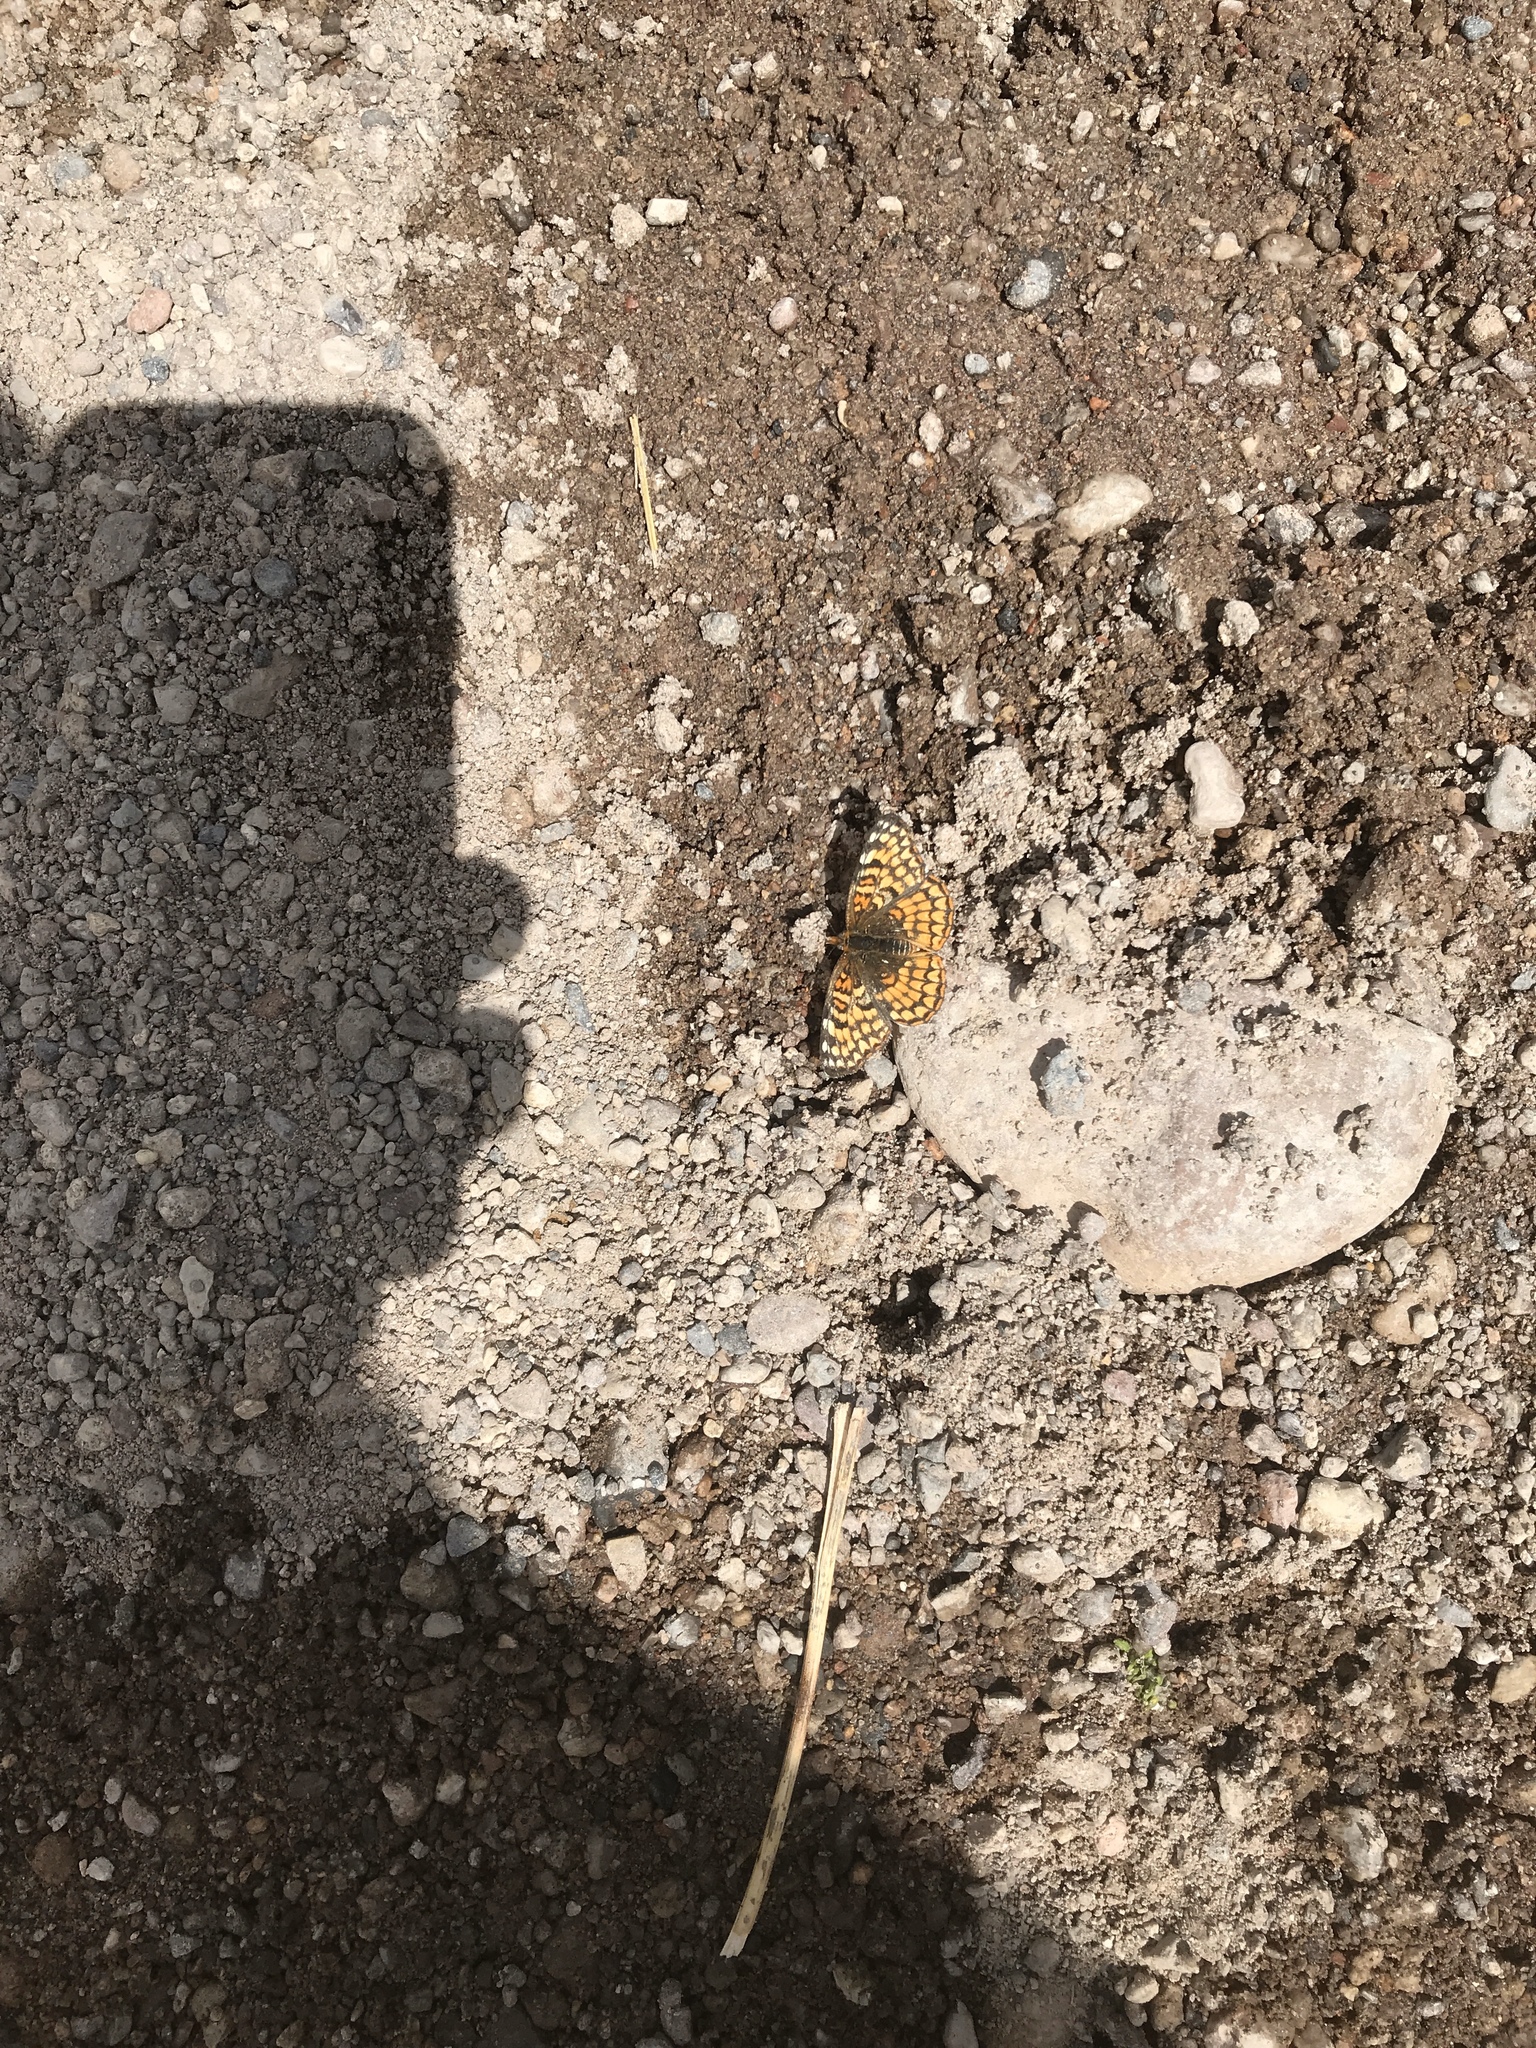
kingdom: Animalia
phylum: Arthropoda
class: Insecta
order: Lepidoptera
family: Nymphalidae
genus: Chlosyne
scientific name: Chlosyne acastus
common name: Sagebrush checkerspot
